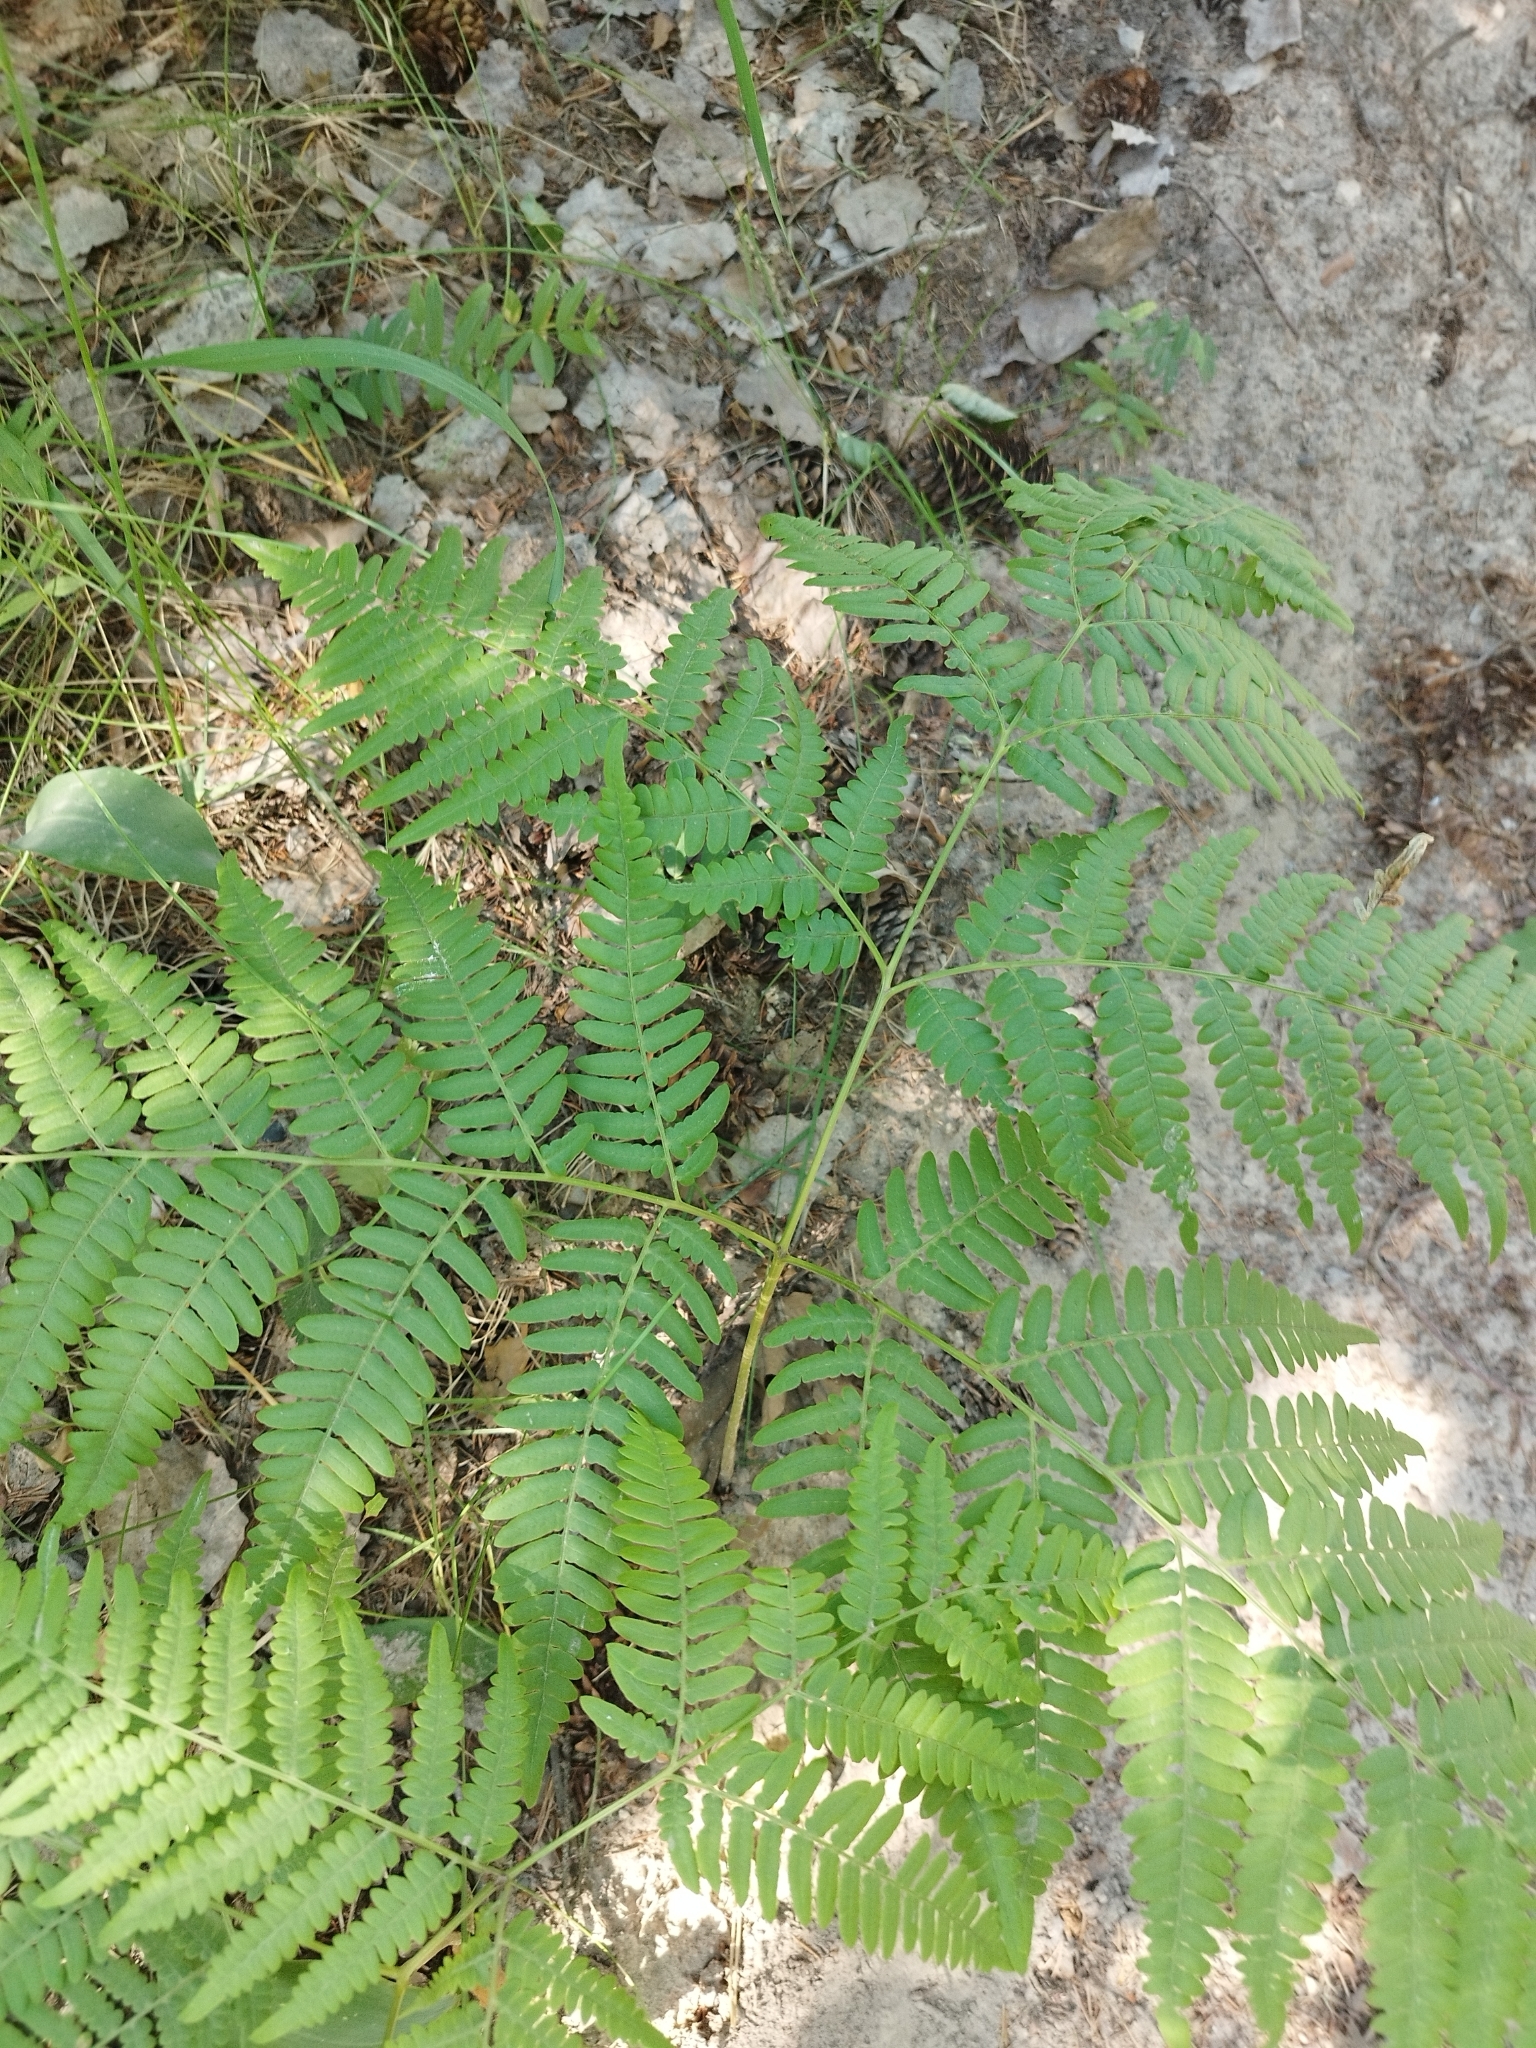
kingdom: Plantae
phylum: Tracheophyta
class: Polypodiopsida
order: Polypodiales
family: Dennstaedtiaceae
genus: Pteridium
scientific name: Pteridium aquilinum
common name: Bracken
